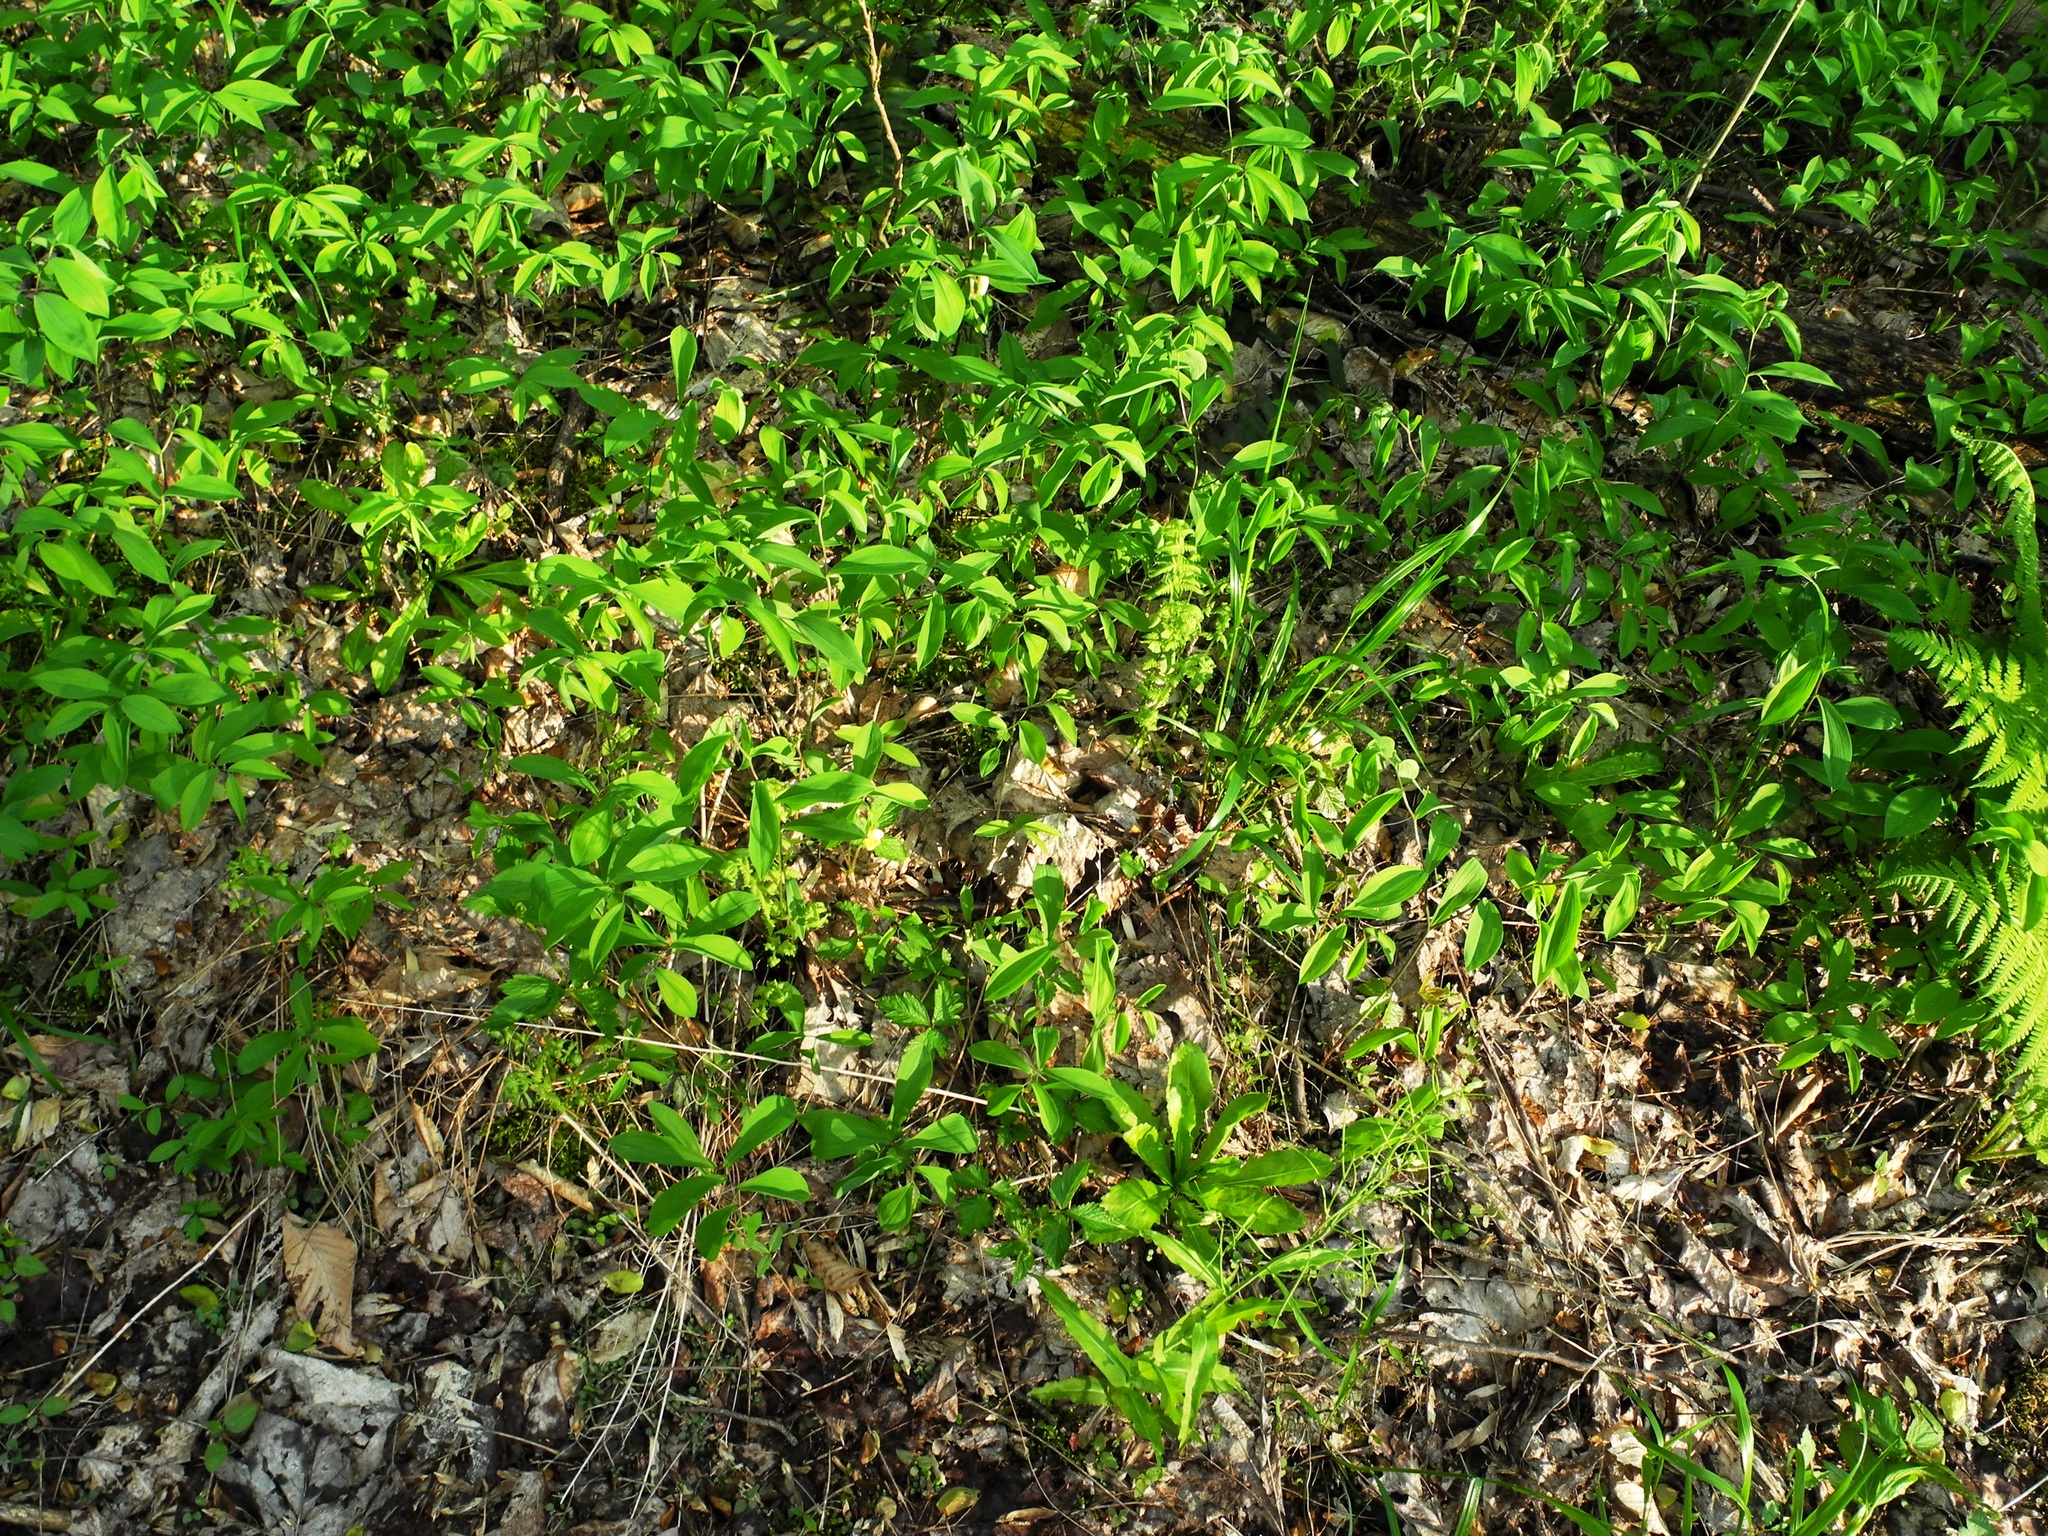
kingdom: Plantae
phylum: Tracheophyta
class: Liliopsida
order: Liliales
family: Colchicaceae
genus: Uvularia
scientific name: Uvularia sessilifolia
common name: Straw-lily
